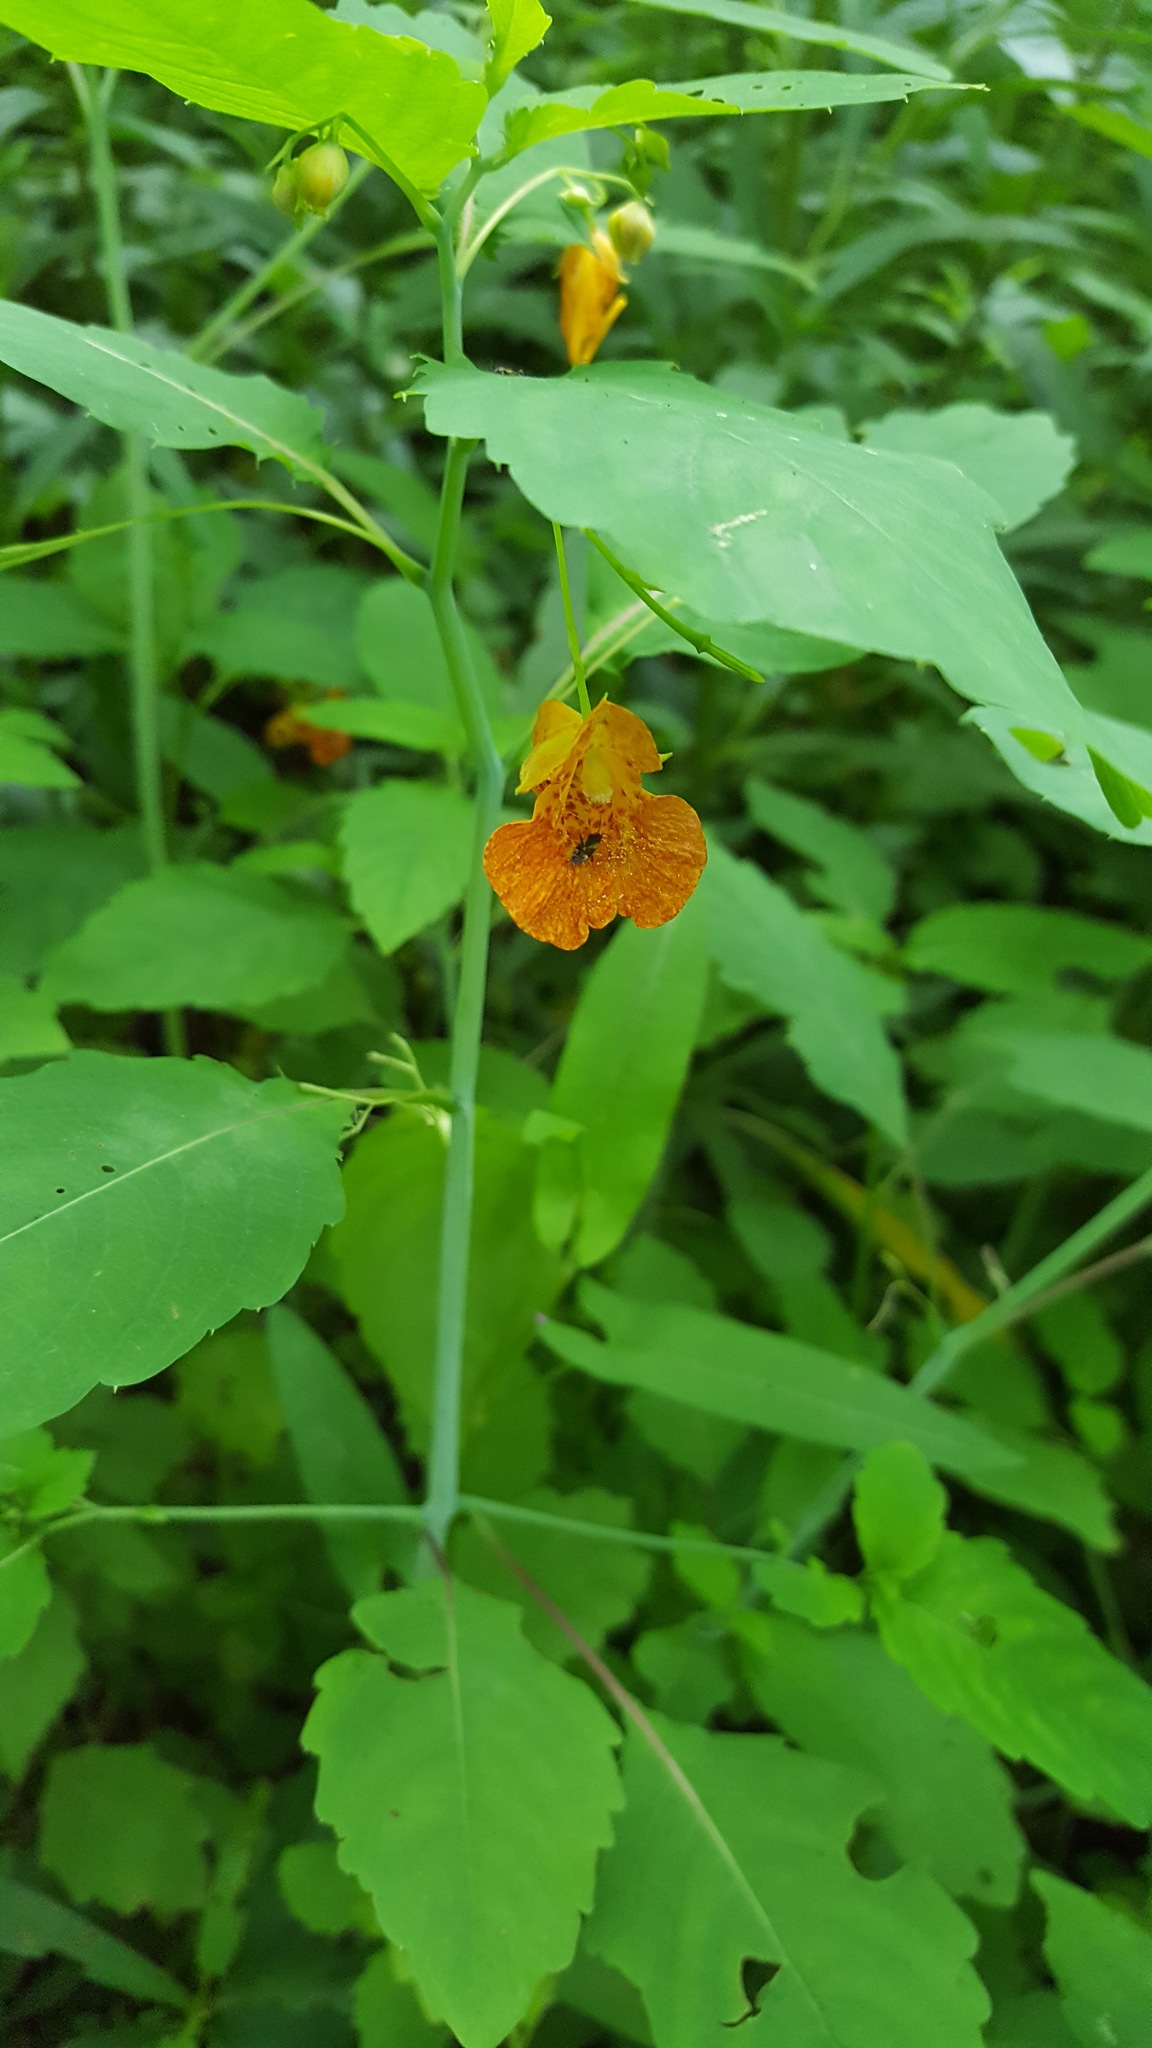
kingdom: Plantae
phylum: Tracheophyta
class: Magnoliopsida
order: Ericales
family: Balsaminaceae
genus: Impatiens
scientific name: Impatiens capensis
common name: Orange balsam
